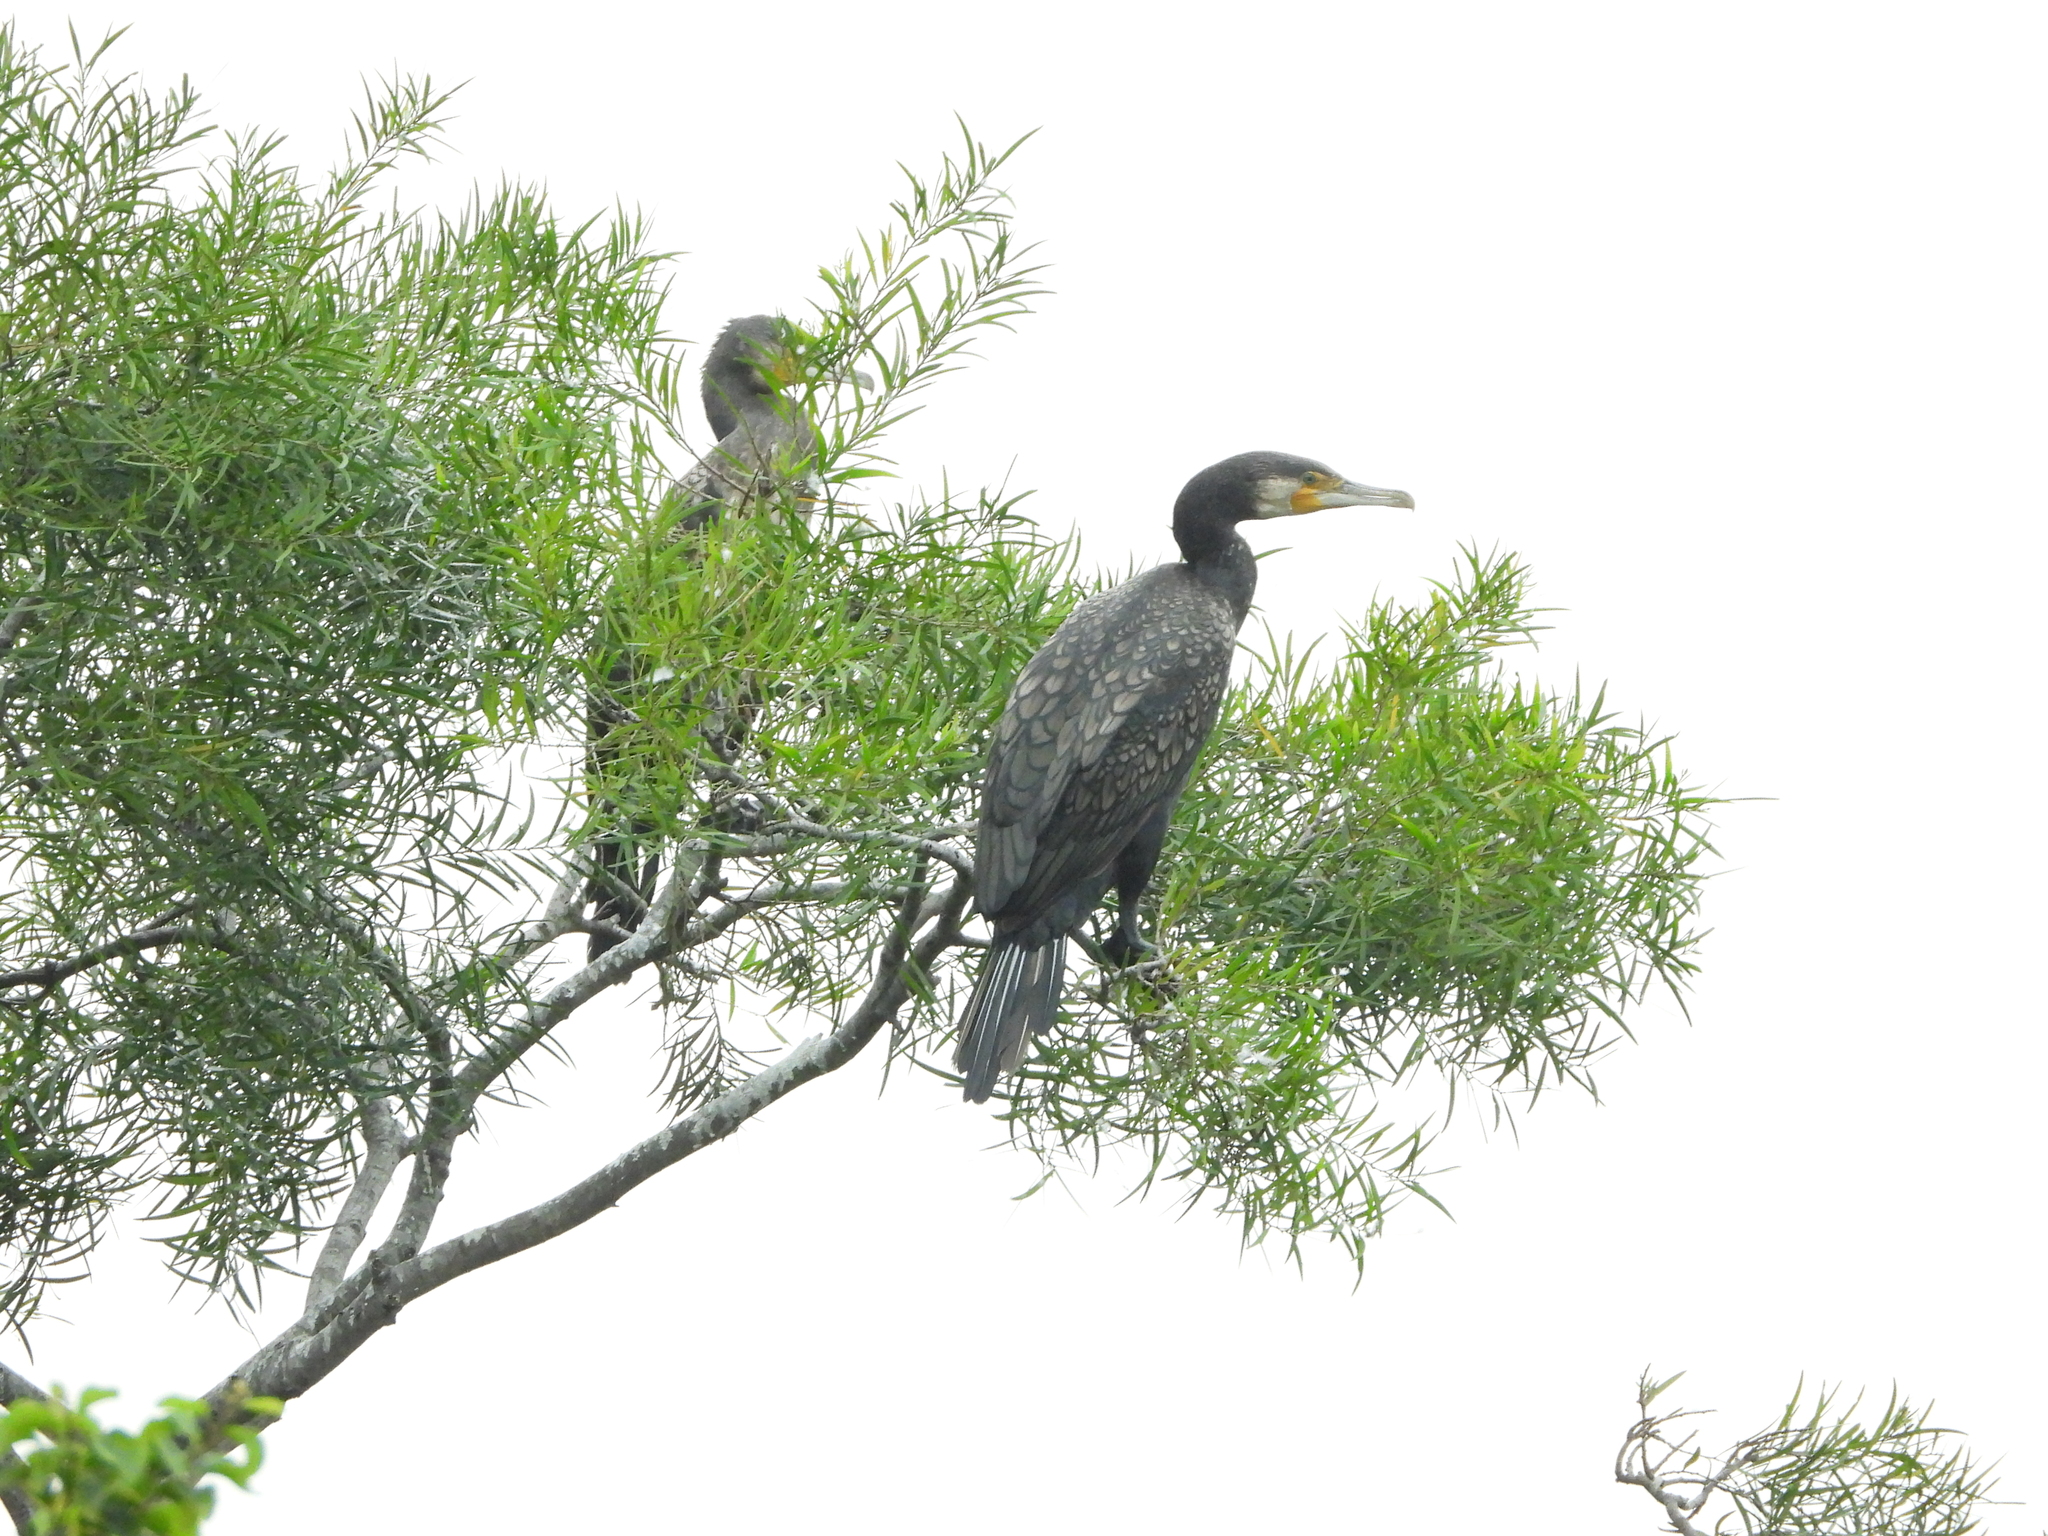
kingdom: Animalia
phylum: Chordata
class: Aves
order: Suliformes
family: Phalacrocoracidae
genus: Phalacrocorax
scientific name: Phalacrocorax carbo
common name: Great cormorant
